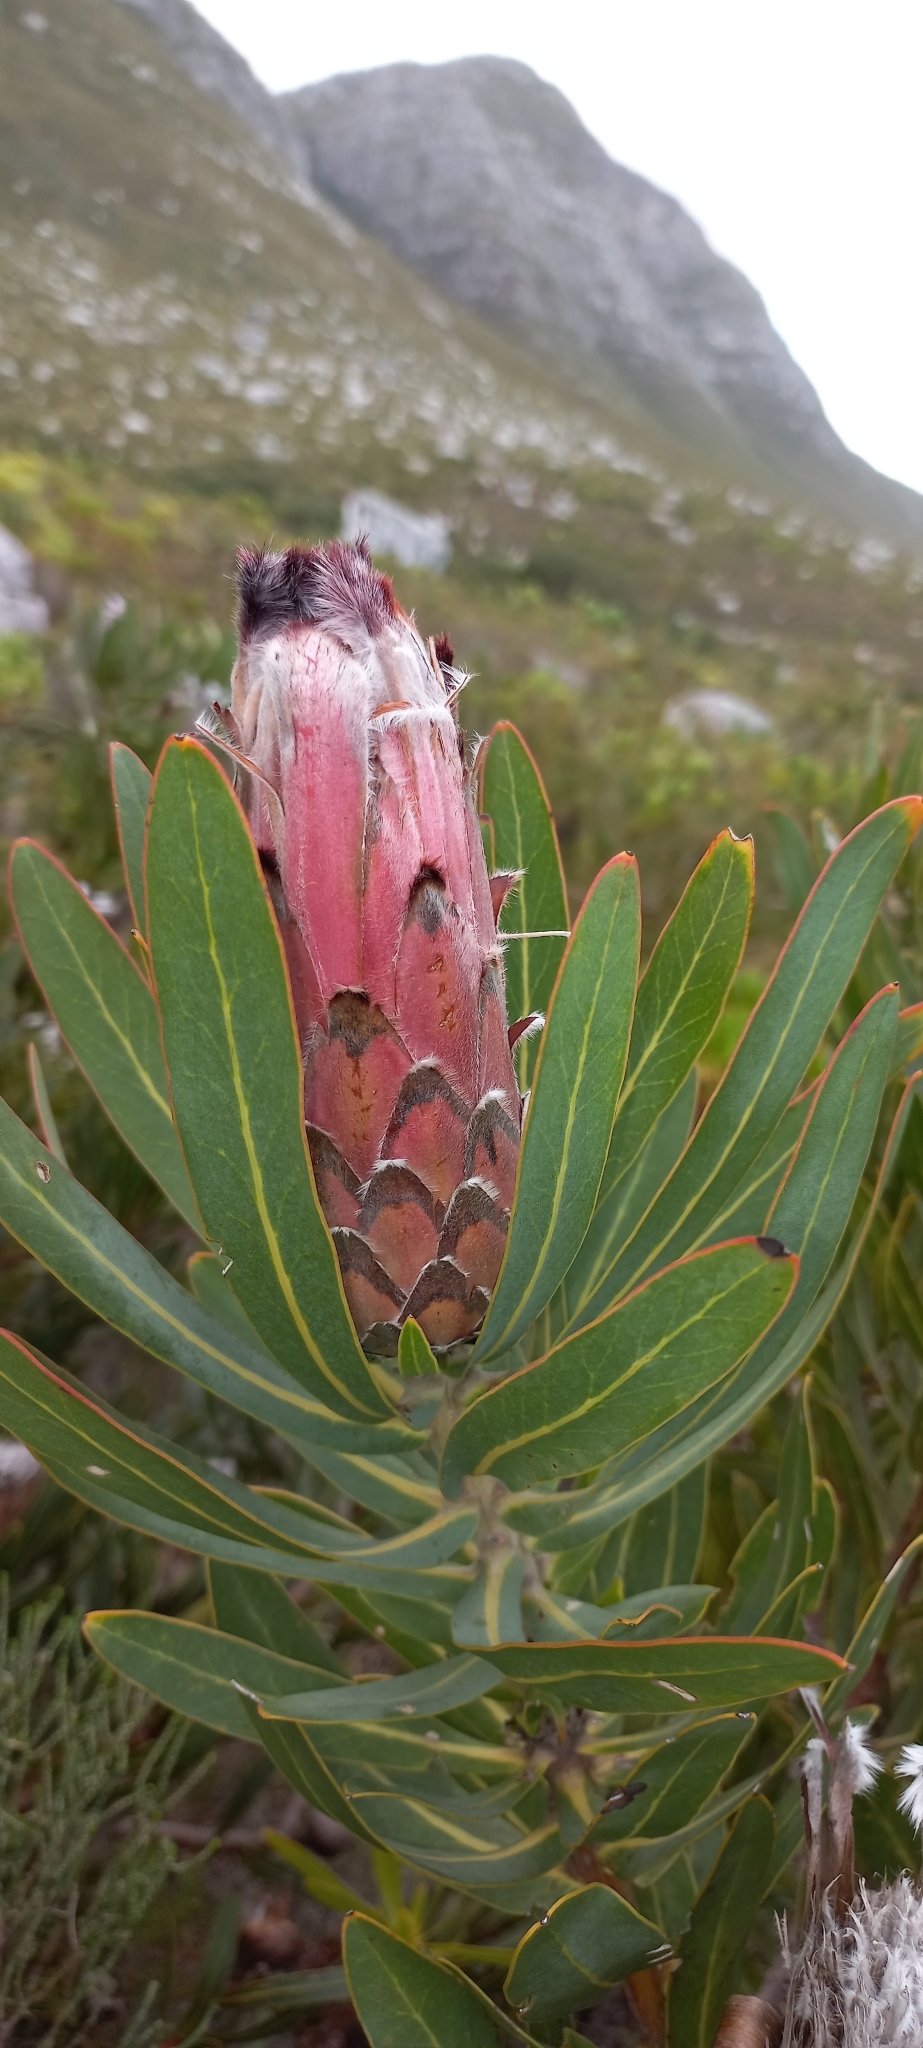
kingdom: Plantae
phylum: Tracheophyta
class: Magnoliopsida
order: Proteales
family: Proteaceae
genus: Protea
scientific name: Protea
